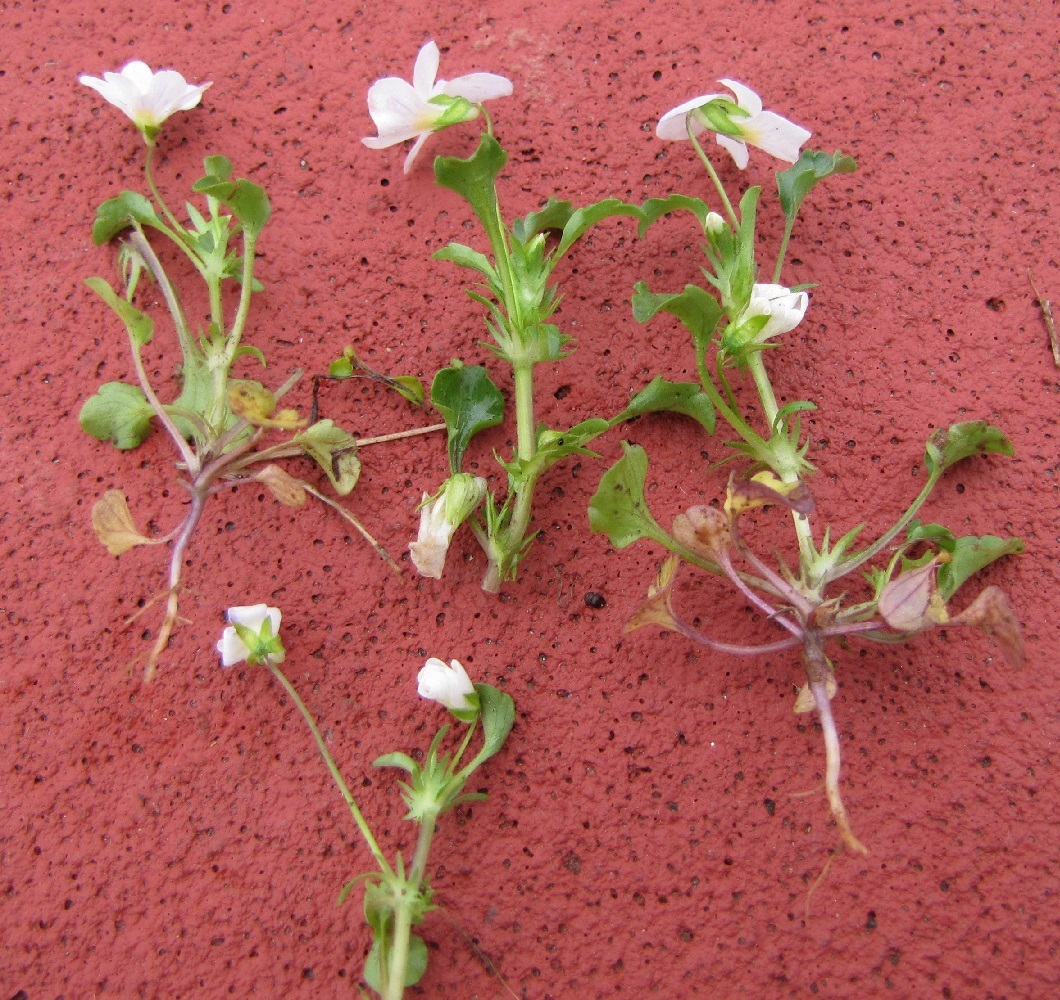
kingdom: Plantae
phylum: Tracheophyta
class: Magnoliopsida
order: Malpighiales
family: Violaceae
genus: Viola
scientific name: Viola rafinesquei
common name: American field pansy
